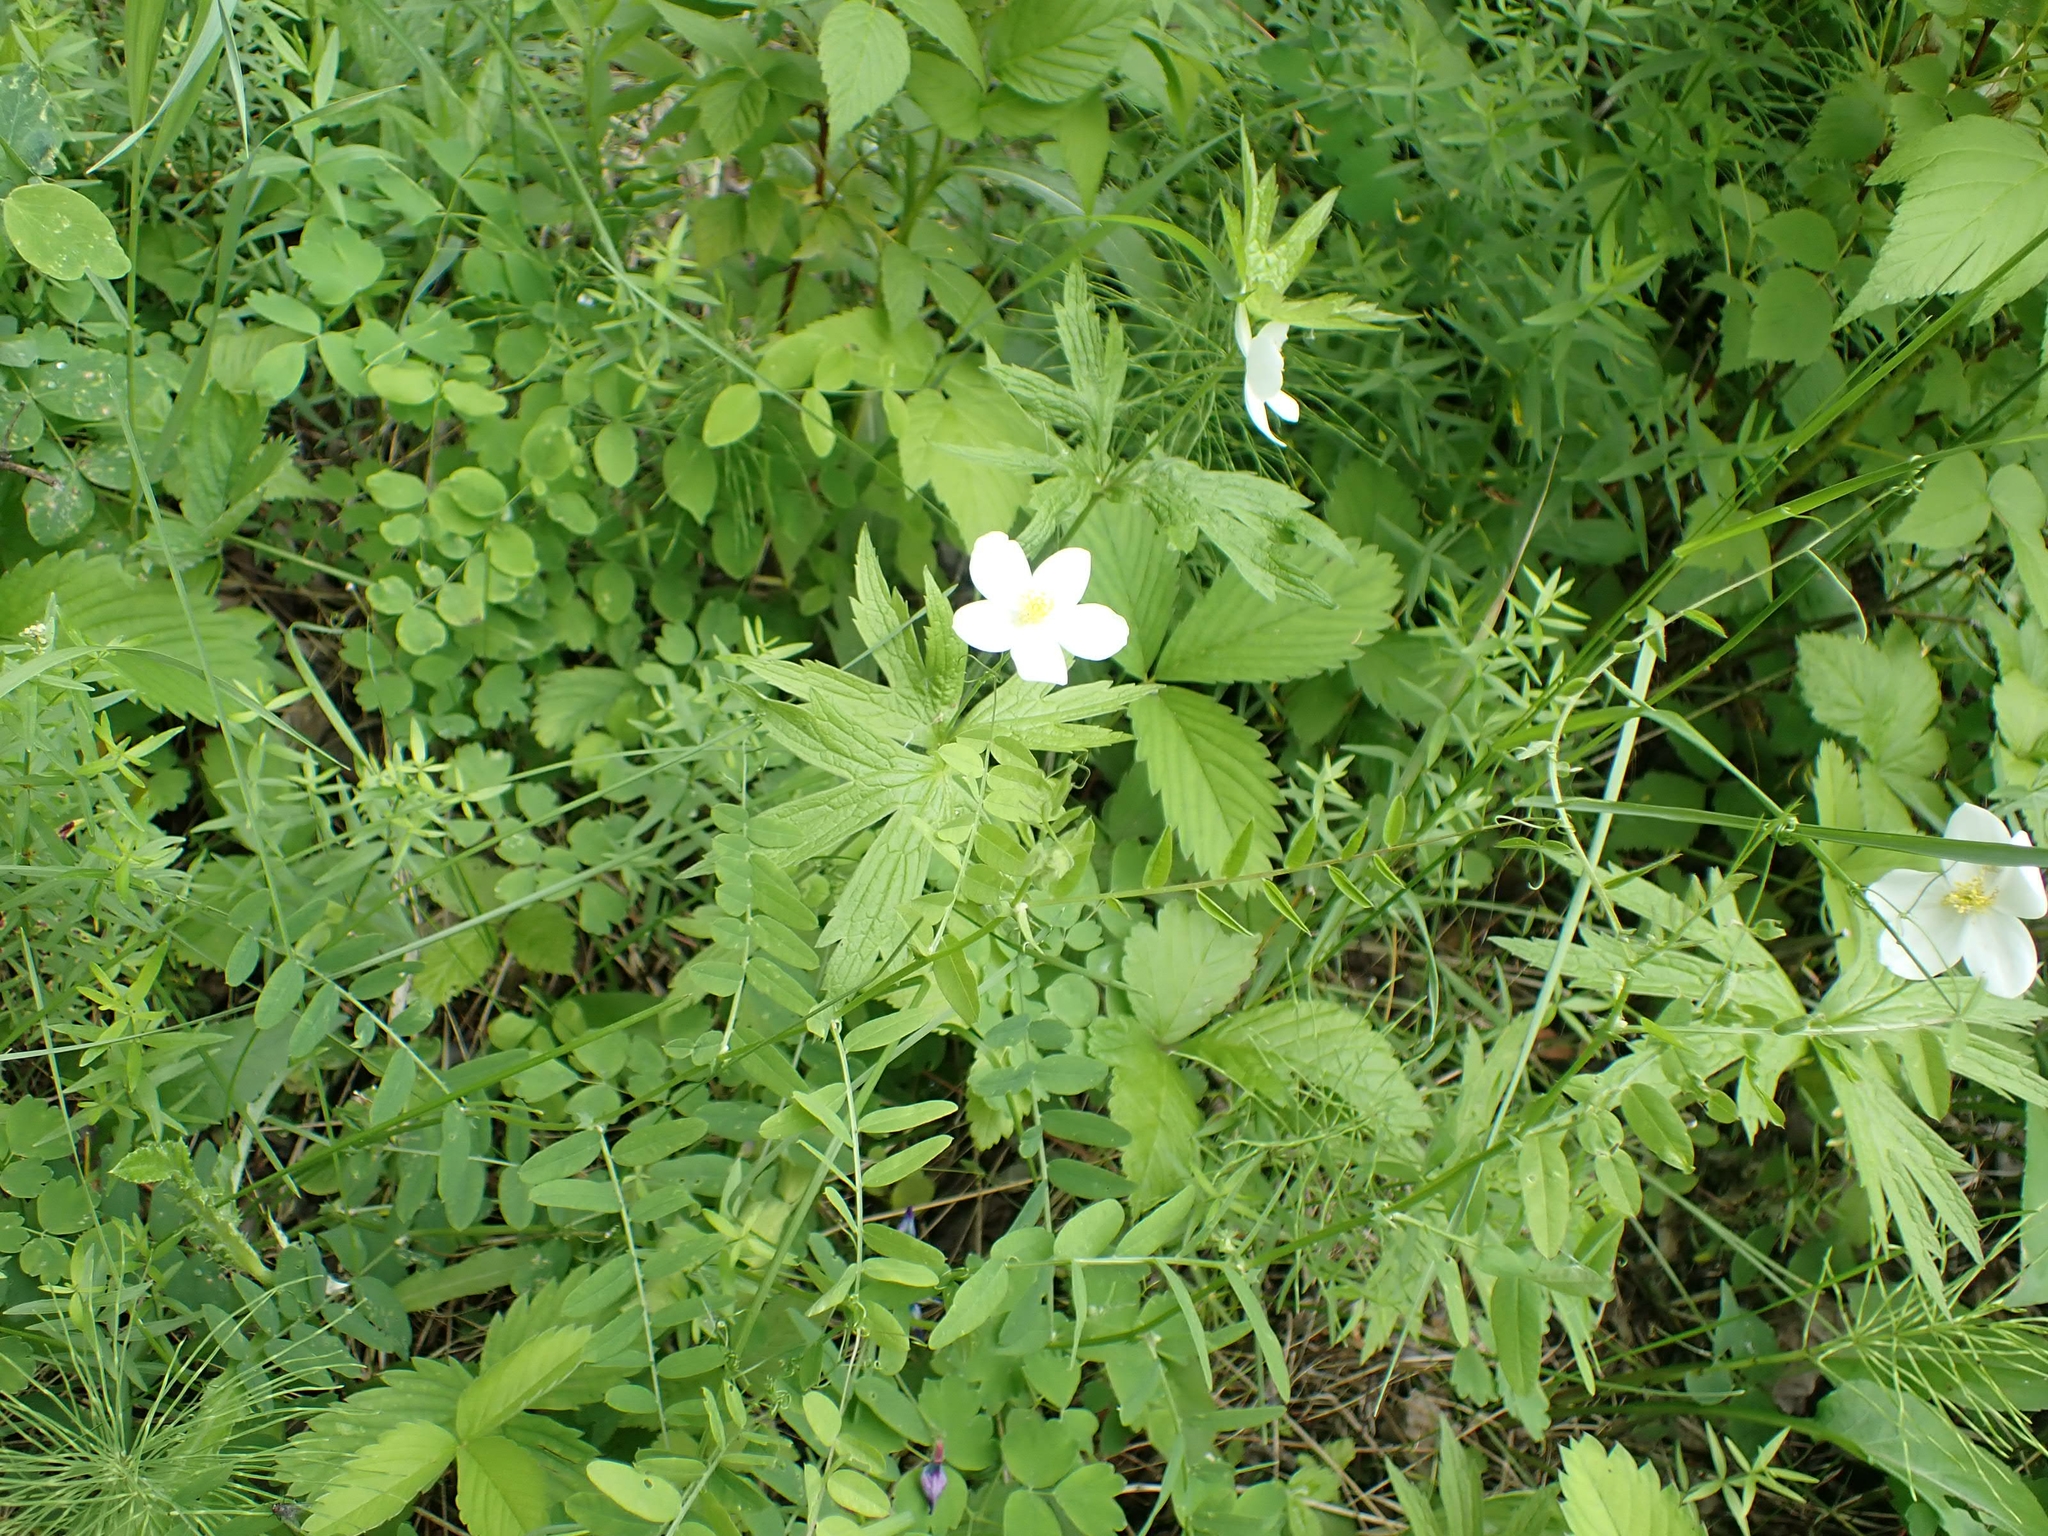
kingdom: Plantae
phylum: Tracheophyta
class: Magnoliopsida
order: Ranunculales
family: Ranunculaceae
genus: Anemonastrum
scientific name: Anemonastrum canadense
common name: Canada anemone
